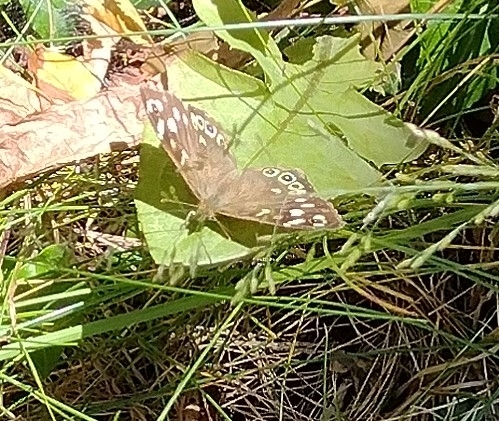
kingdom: Animalia
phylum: Arthropoda
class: Insecta
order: Lepidoptera
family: Nymphalidae
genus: Pararge
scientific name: Pararge aegeria
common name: Speckled wood
